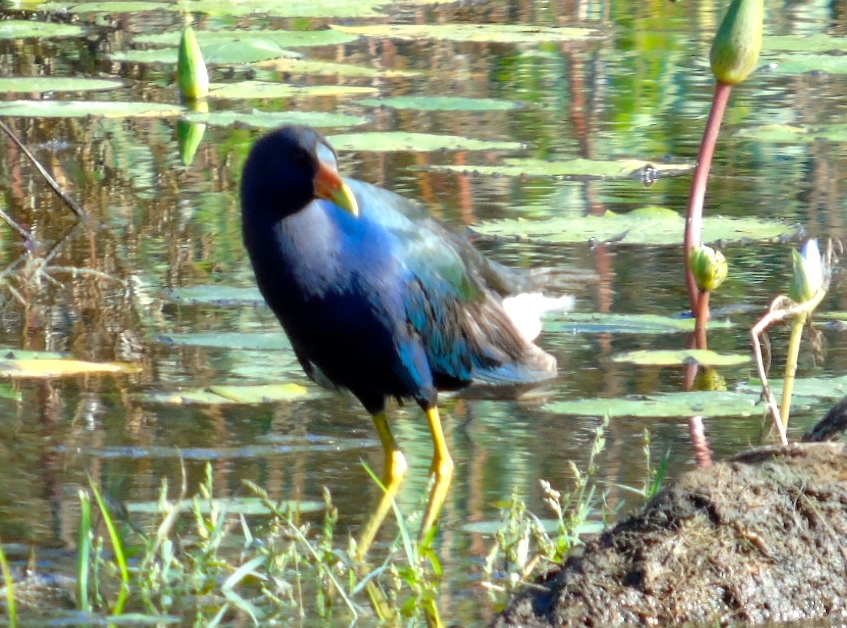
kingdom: Animalia
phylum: Chordata
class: Aves
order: Gruiformes
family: Rallidae
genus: Porphyrio
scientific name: Porphyrio martinica
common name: Purple gallinule
